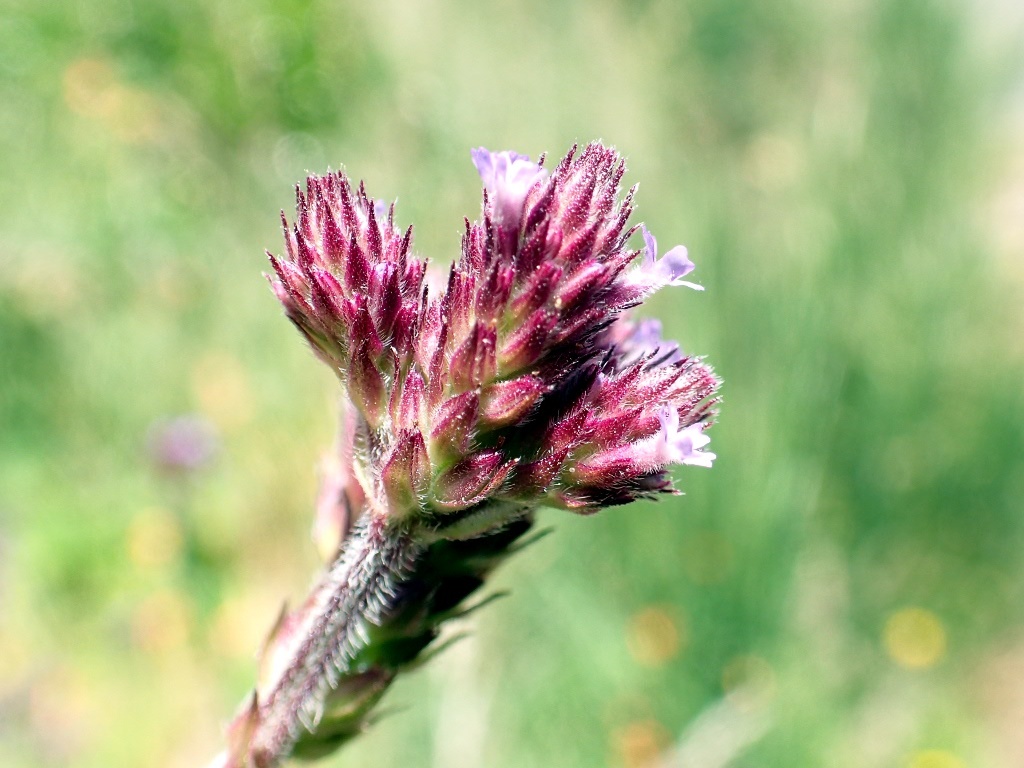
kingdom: Animalia
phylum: Arthropoda
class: Insecta
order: Hymenoptera
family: Apidae
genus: Bombus
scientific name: Bombus terrestris
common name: Buff-tailed bumblebee
